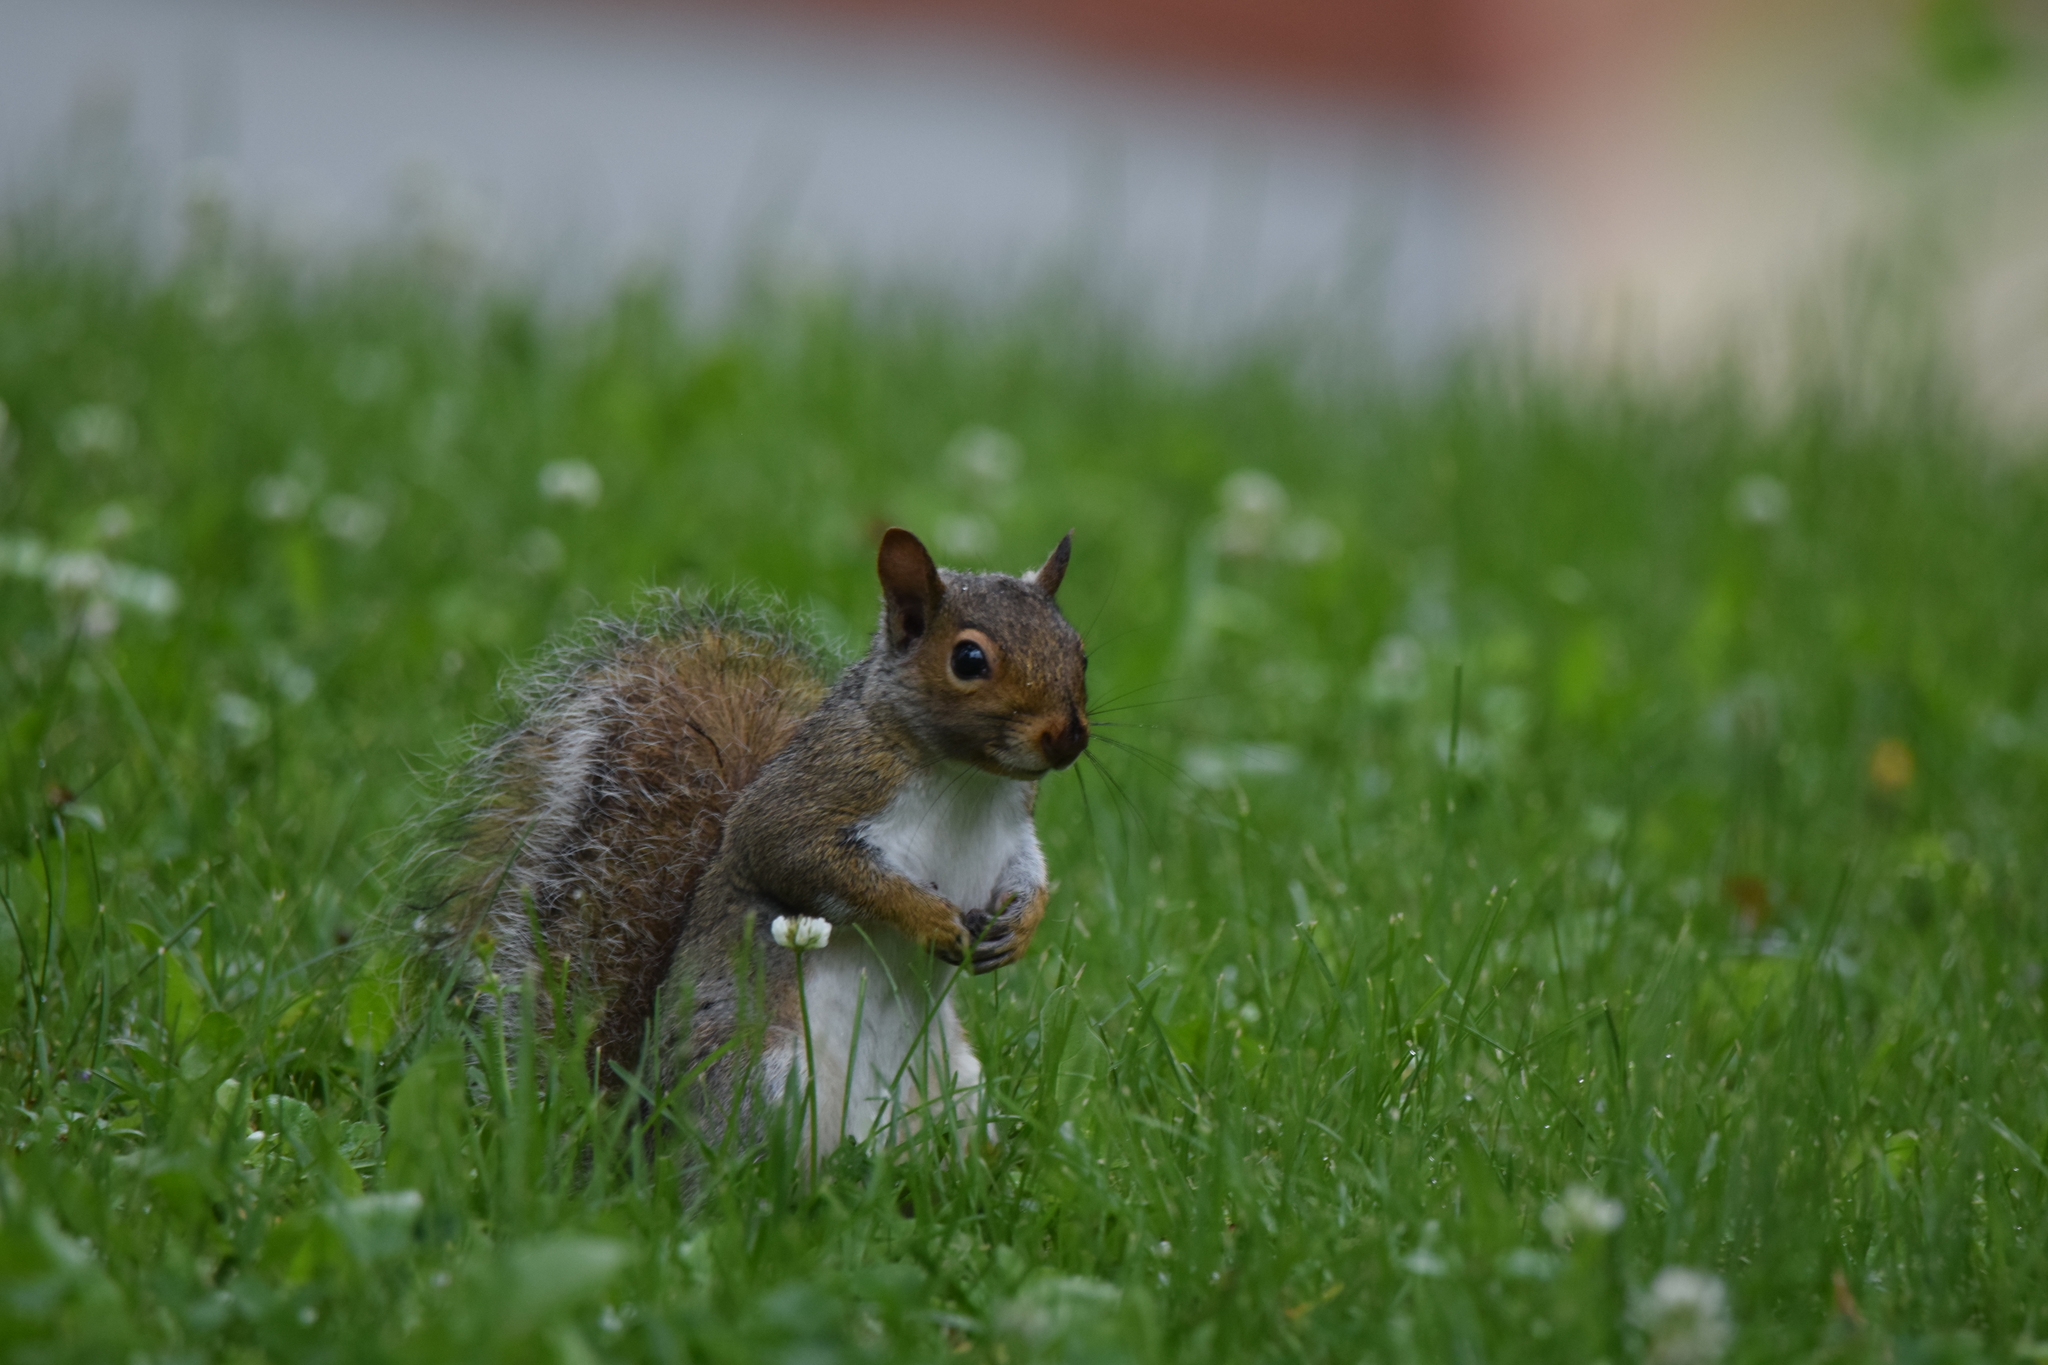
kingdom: Animalia
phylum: Chordata
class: Mammalia
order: Rodentia
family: Sciuridae
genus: Sciurus
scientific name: Sciurus carolinensis
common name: Eastern gray squirrel
